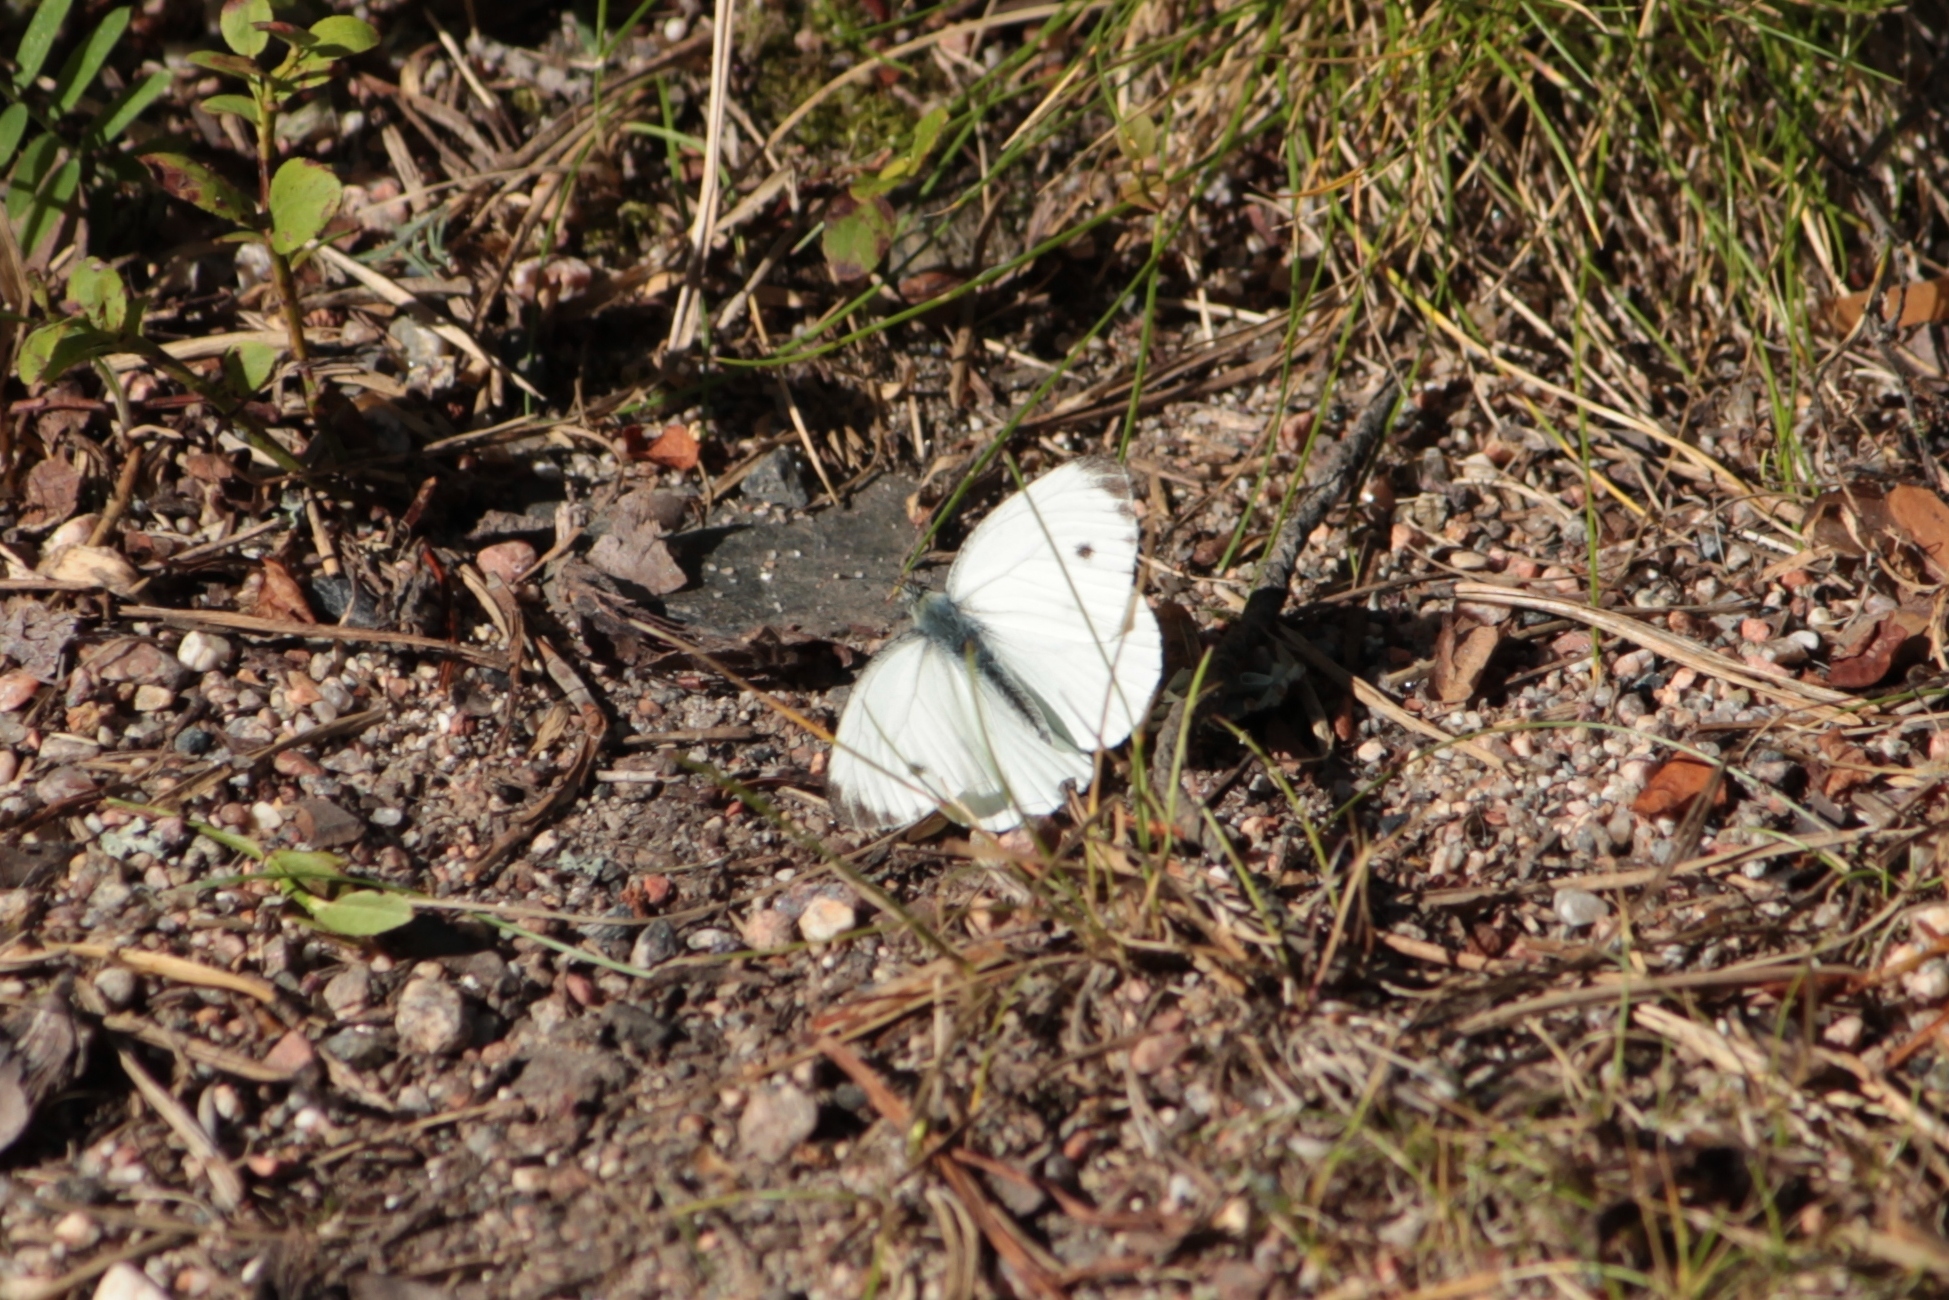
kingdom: Animalia
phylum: Arthropoda
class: Insecta
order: Lepidoptera
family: Pieridae
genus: Pieris
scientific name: Pieris napi
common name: Green-veined white
